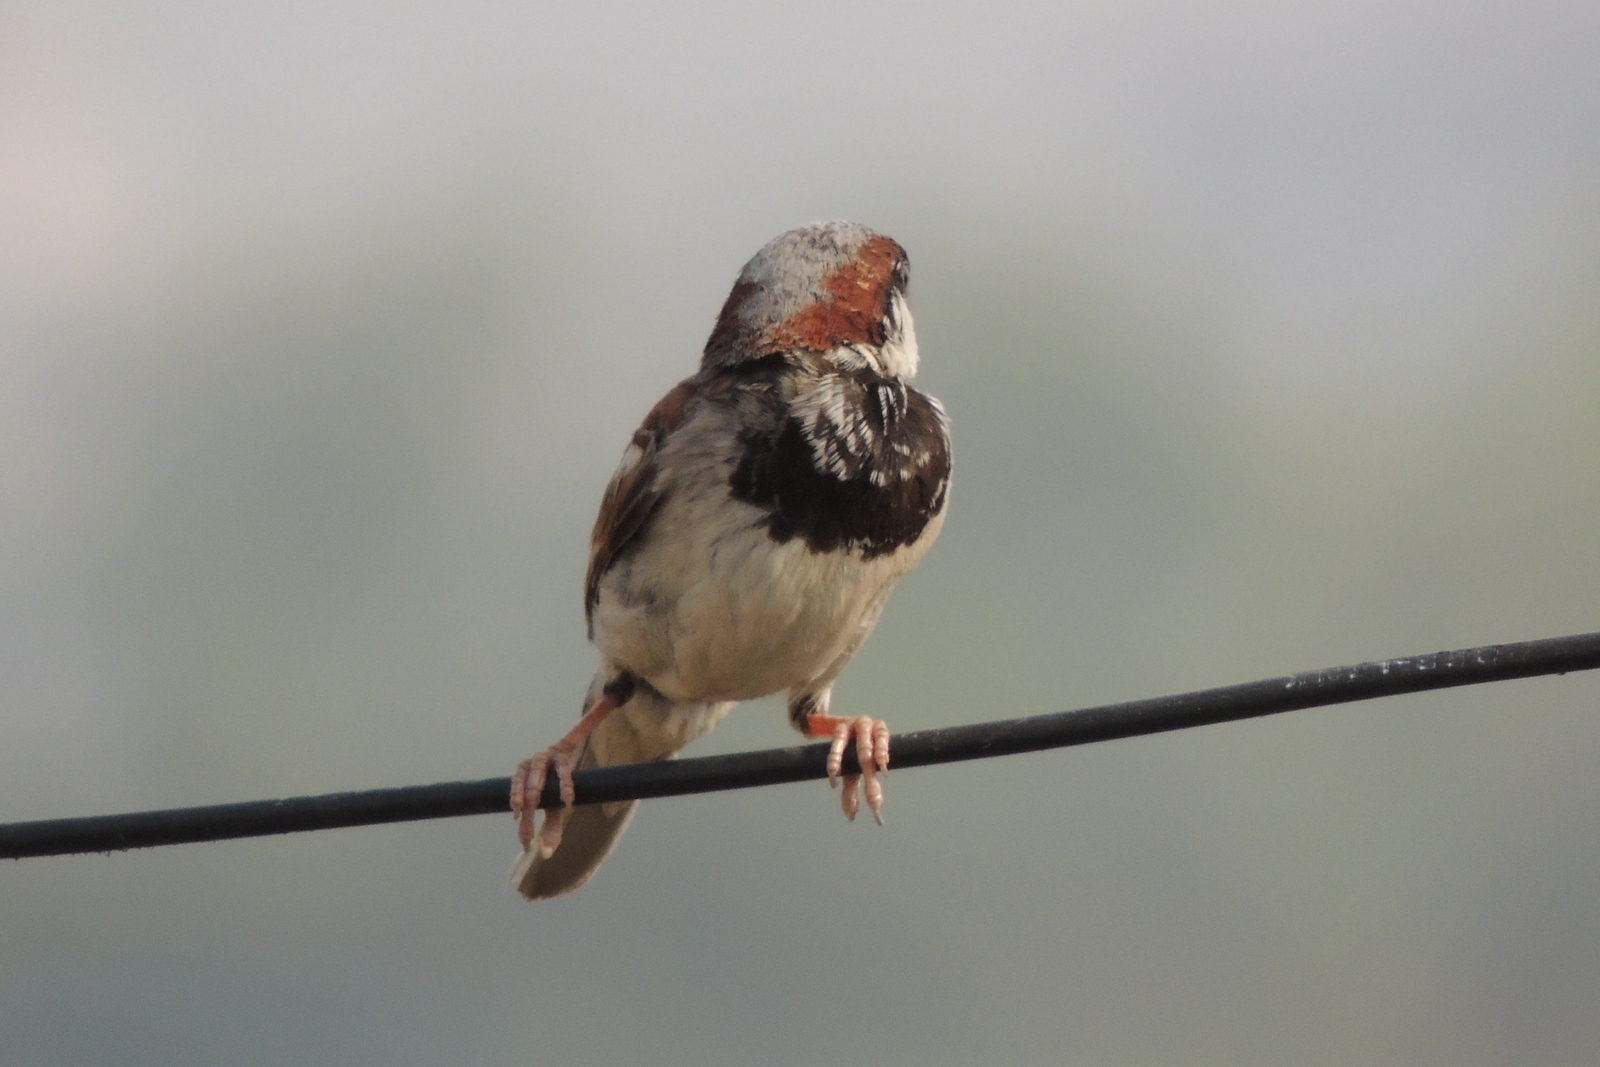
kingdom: Animalia
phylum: Chordata
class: Aves
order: Passeriformes
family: Passeridae
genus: Passer
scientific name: Passer domesticus
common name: House sparrow
